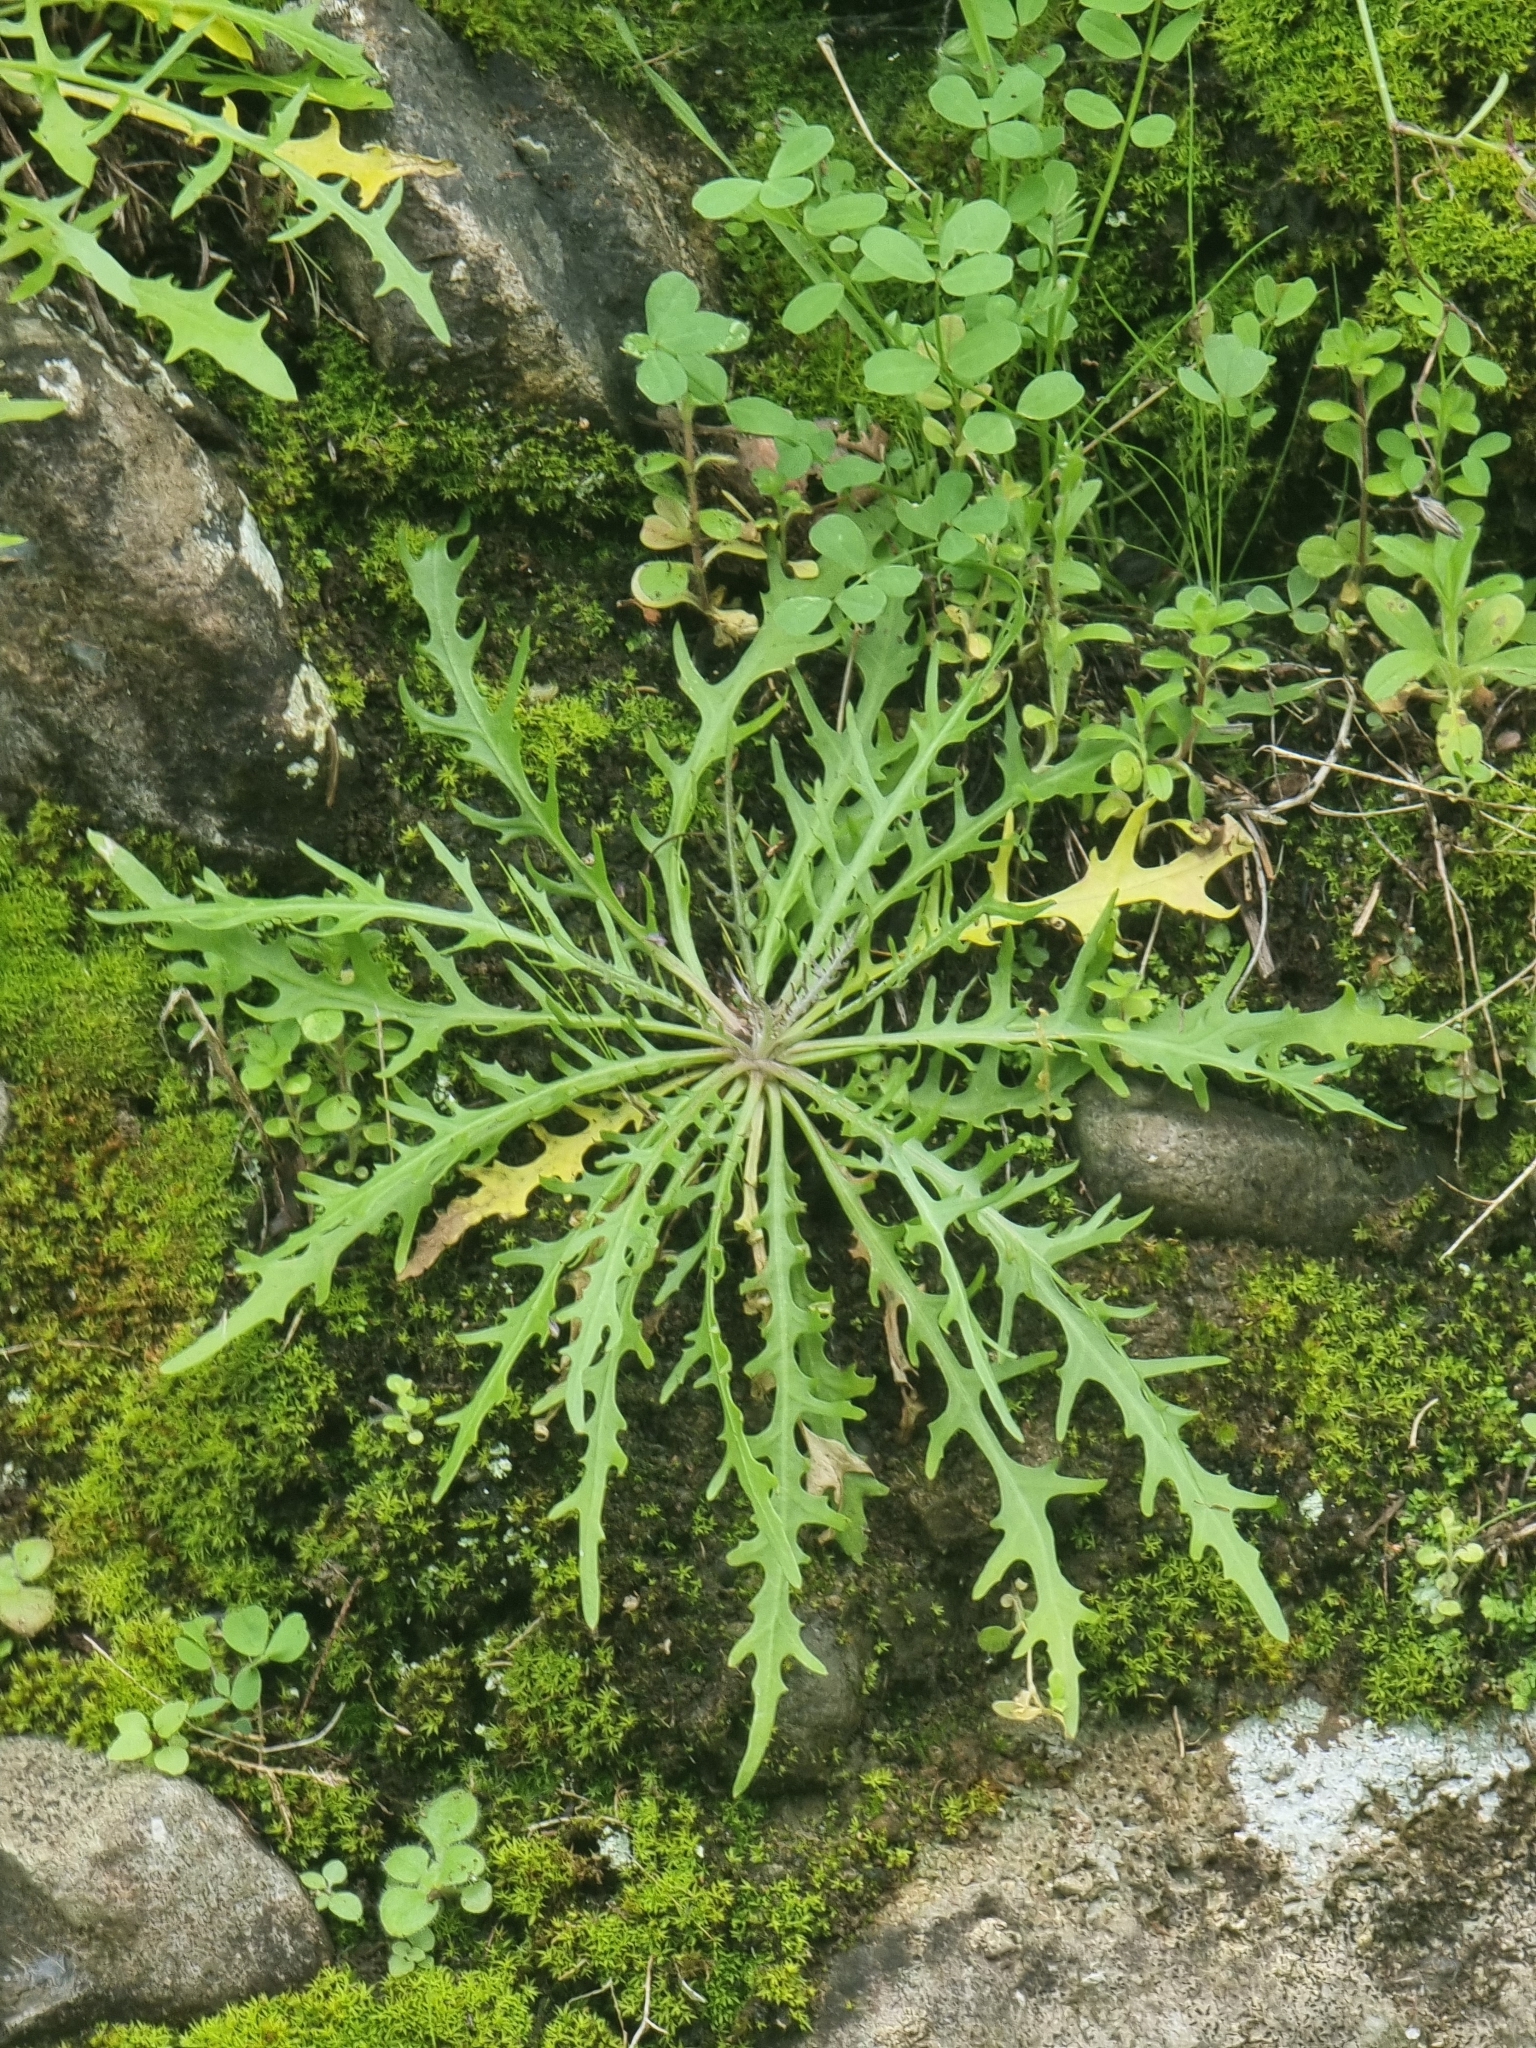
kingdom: Plantae
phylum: Tracheophyta
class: Magnoliopsida
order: Asterales
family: Asteraceae
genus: Tolpis
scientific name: Tolpis succulenta
